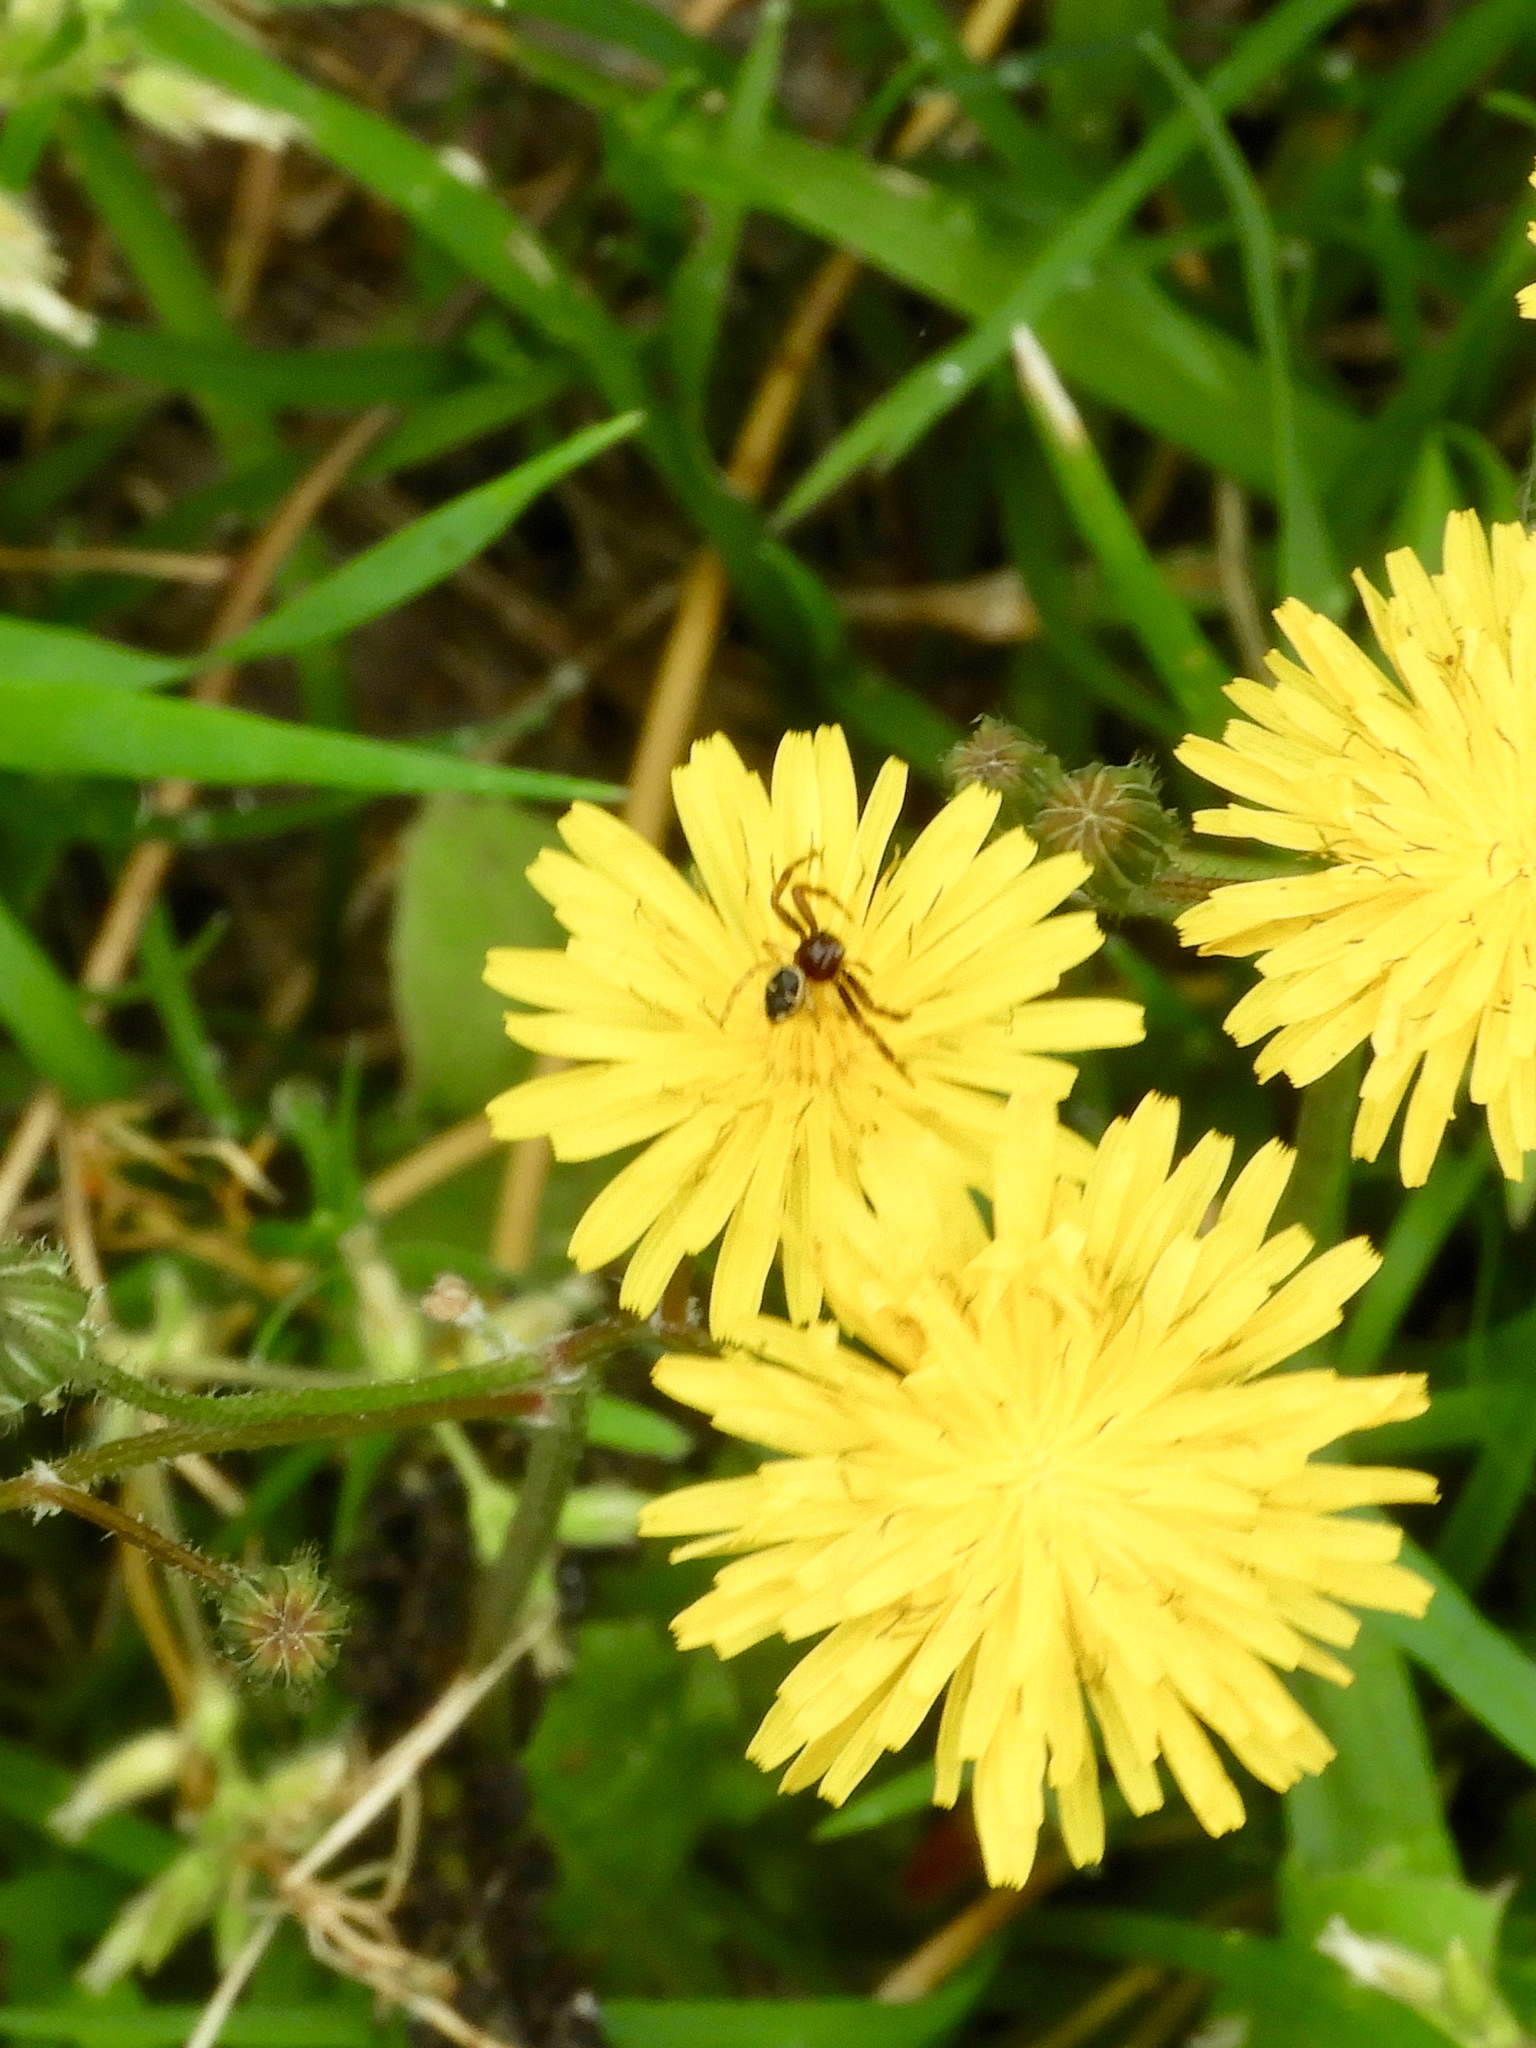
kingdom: Animalia
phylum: Arthropoda
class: Arachnida
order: Araneae
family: Thomisidae
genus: Synema
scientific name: Synema globosum
